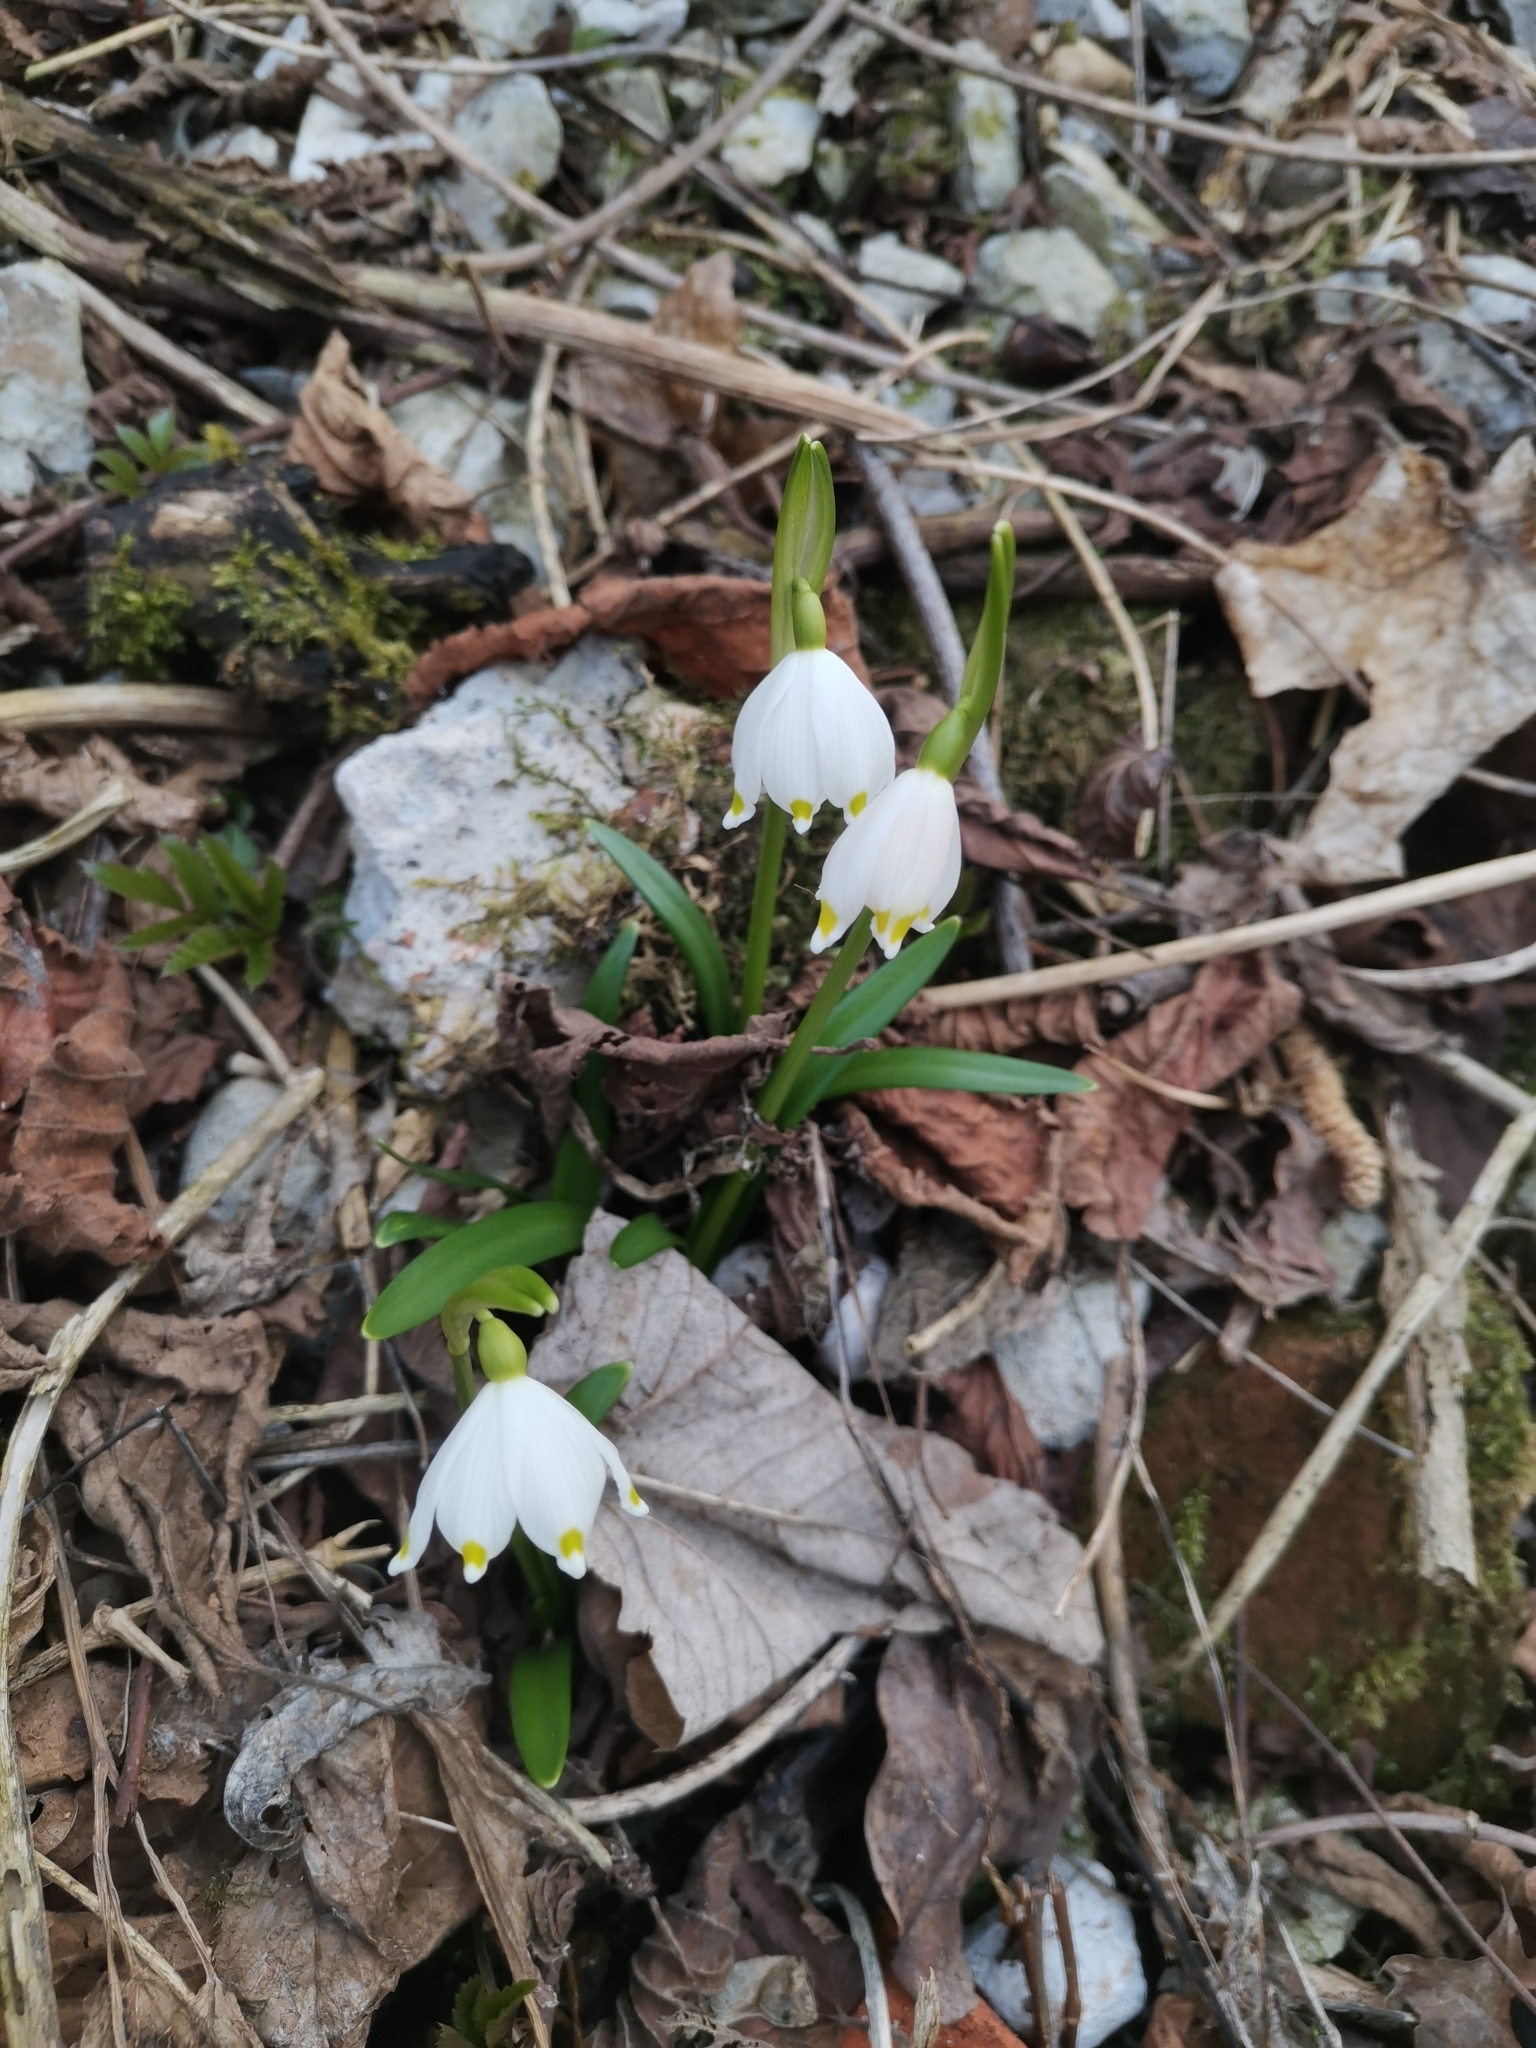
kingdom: Plantae
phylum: Tracheophyta
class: Liliopsida
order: Asparagales
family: Amaryllidaceae
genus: Leucojum
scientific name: Leucojum vernum
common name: Spring snowflake
